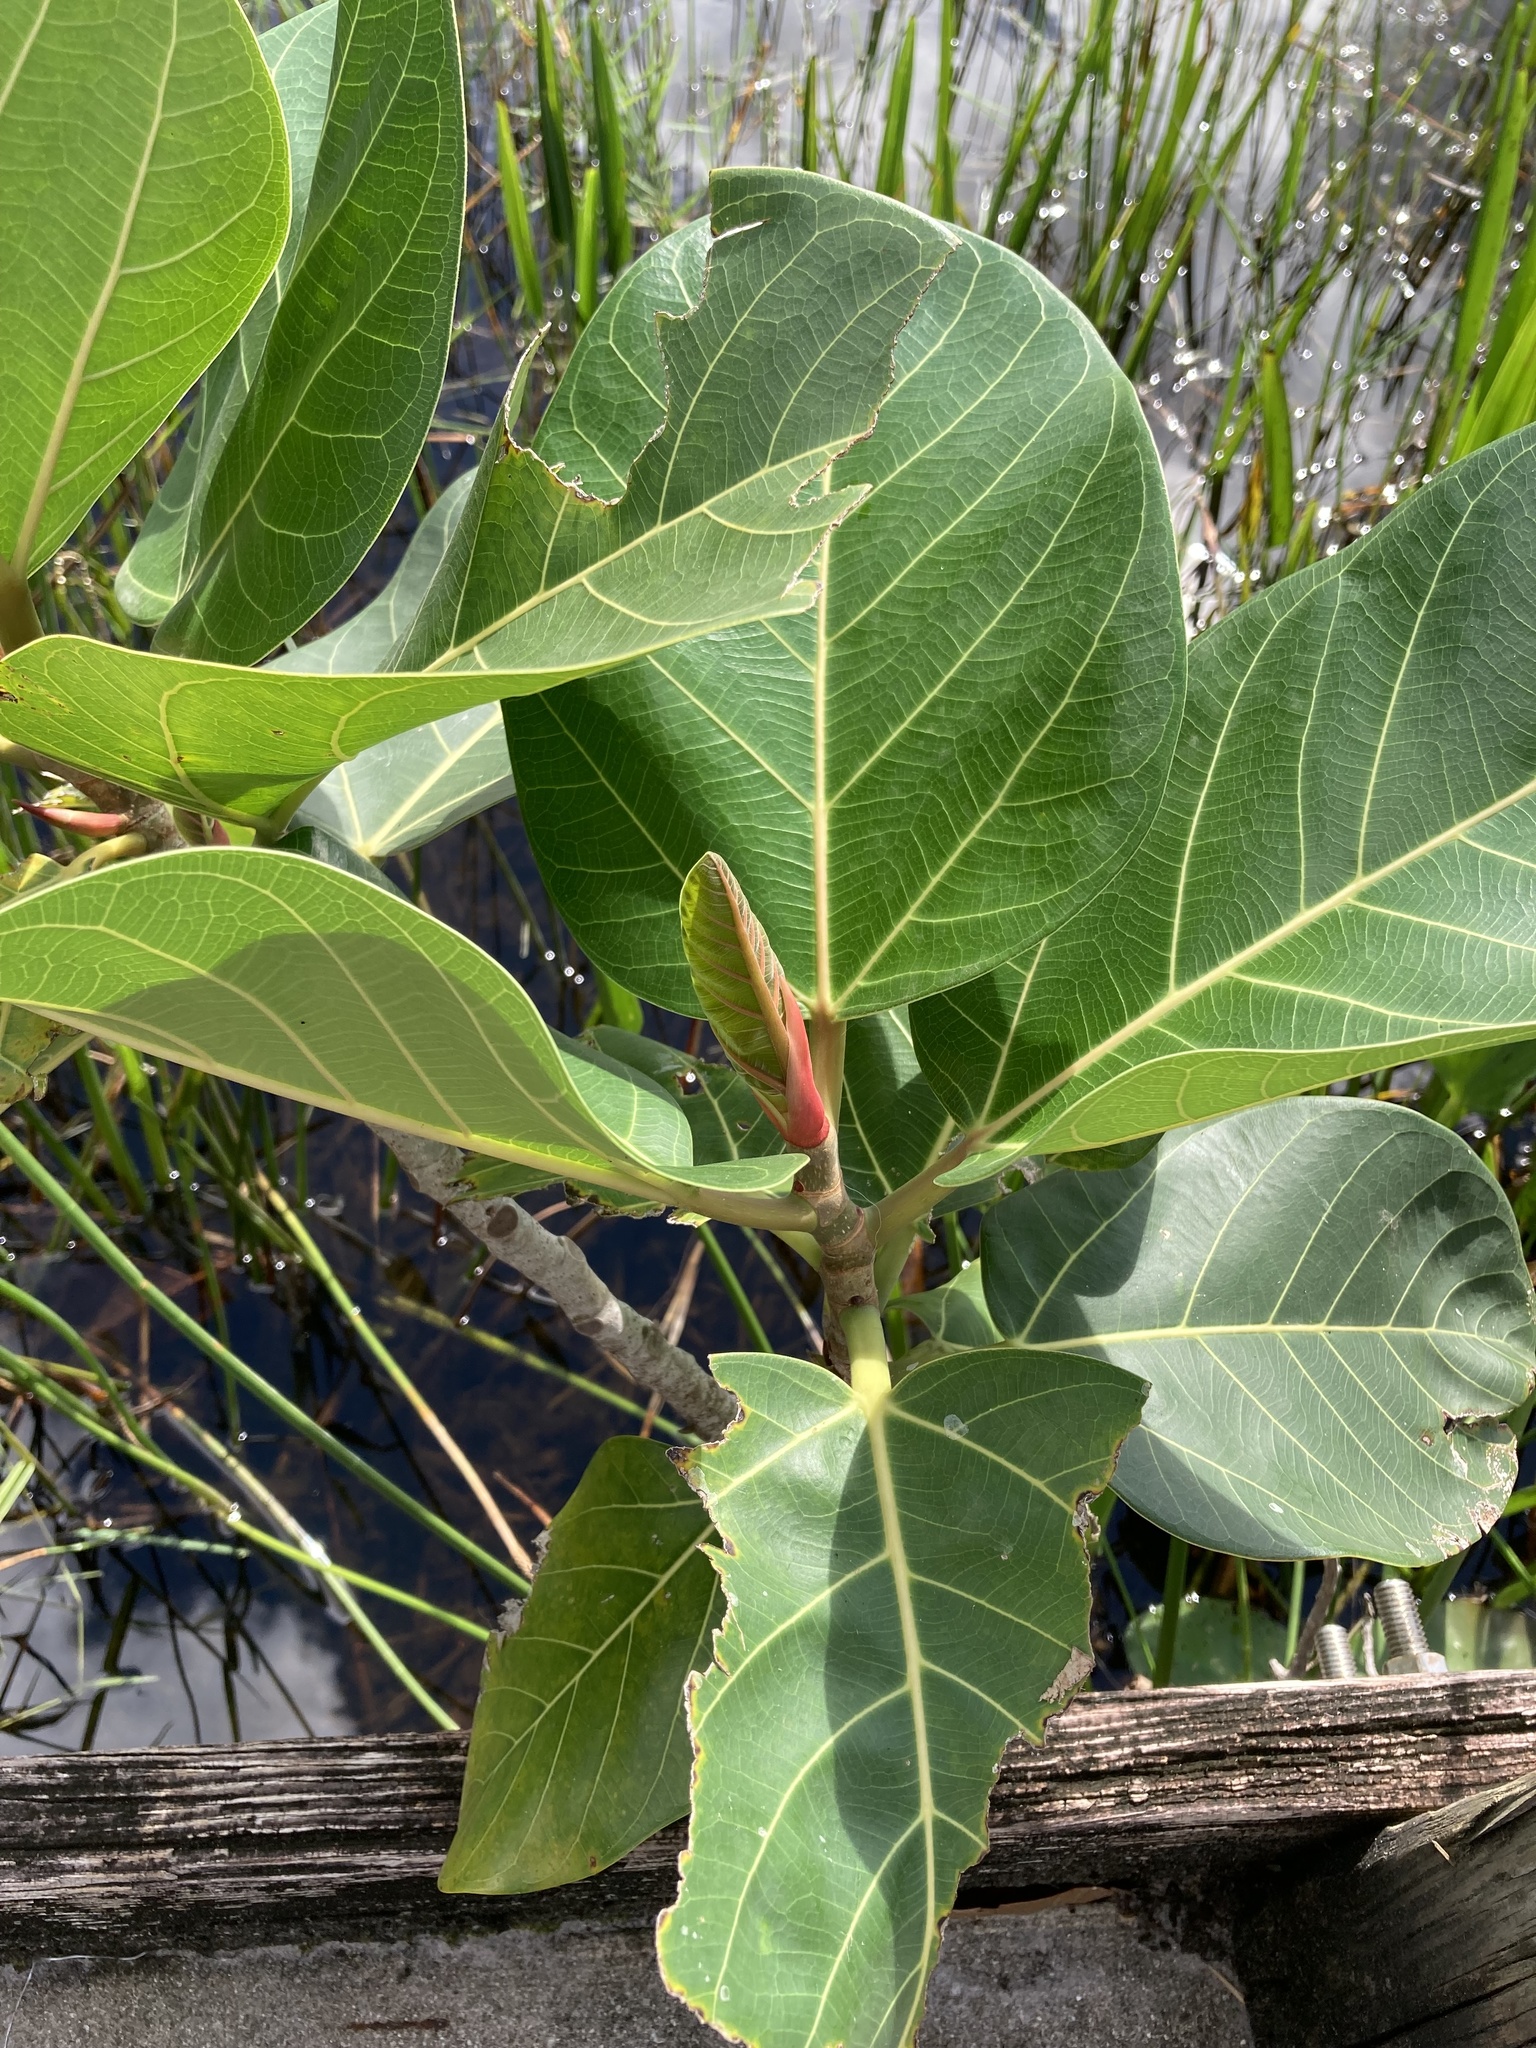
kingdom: Plantae
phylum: Tracheophyta
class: Magnoliopsida
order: Rosales
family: Moraceae
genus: Ficus
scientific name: Ficus altissima
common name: Council tree
